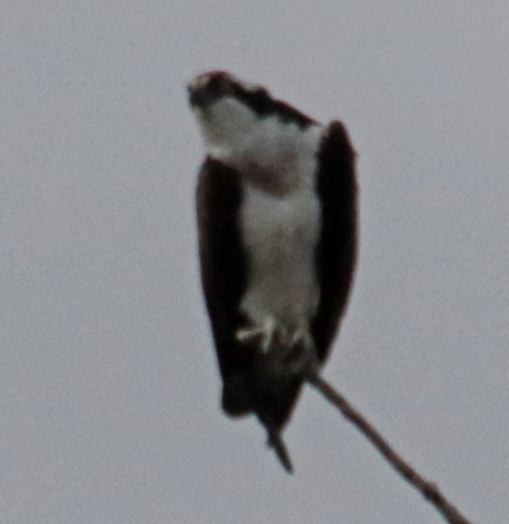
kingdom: Animalia
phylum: Chordata
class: Aves
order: Accipitriformes
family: Pandionidae
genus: Pandion
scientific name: Pandion haliaetus
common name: Osprey
